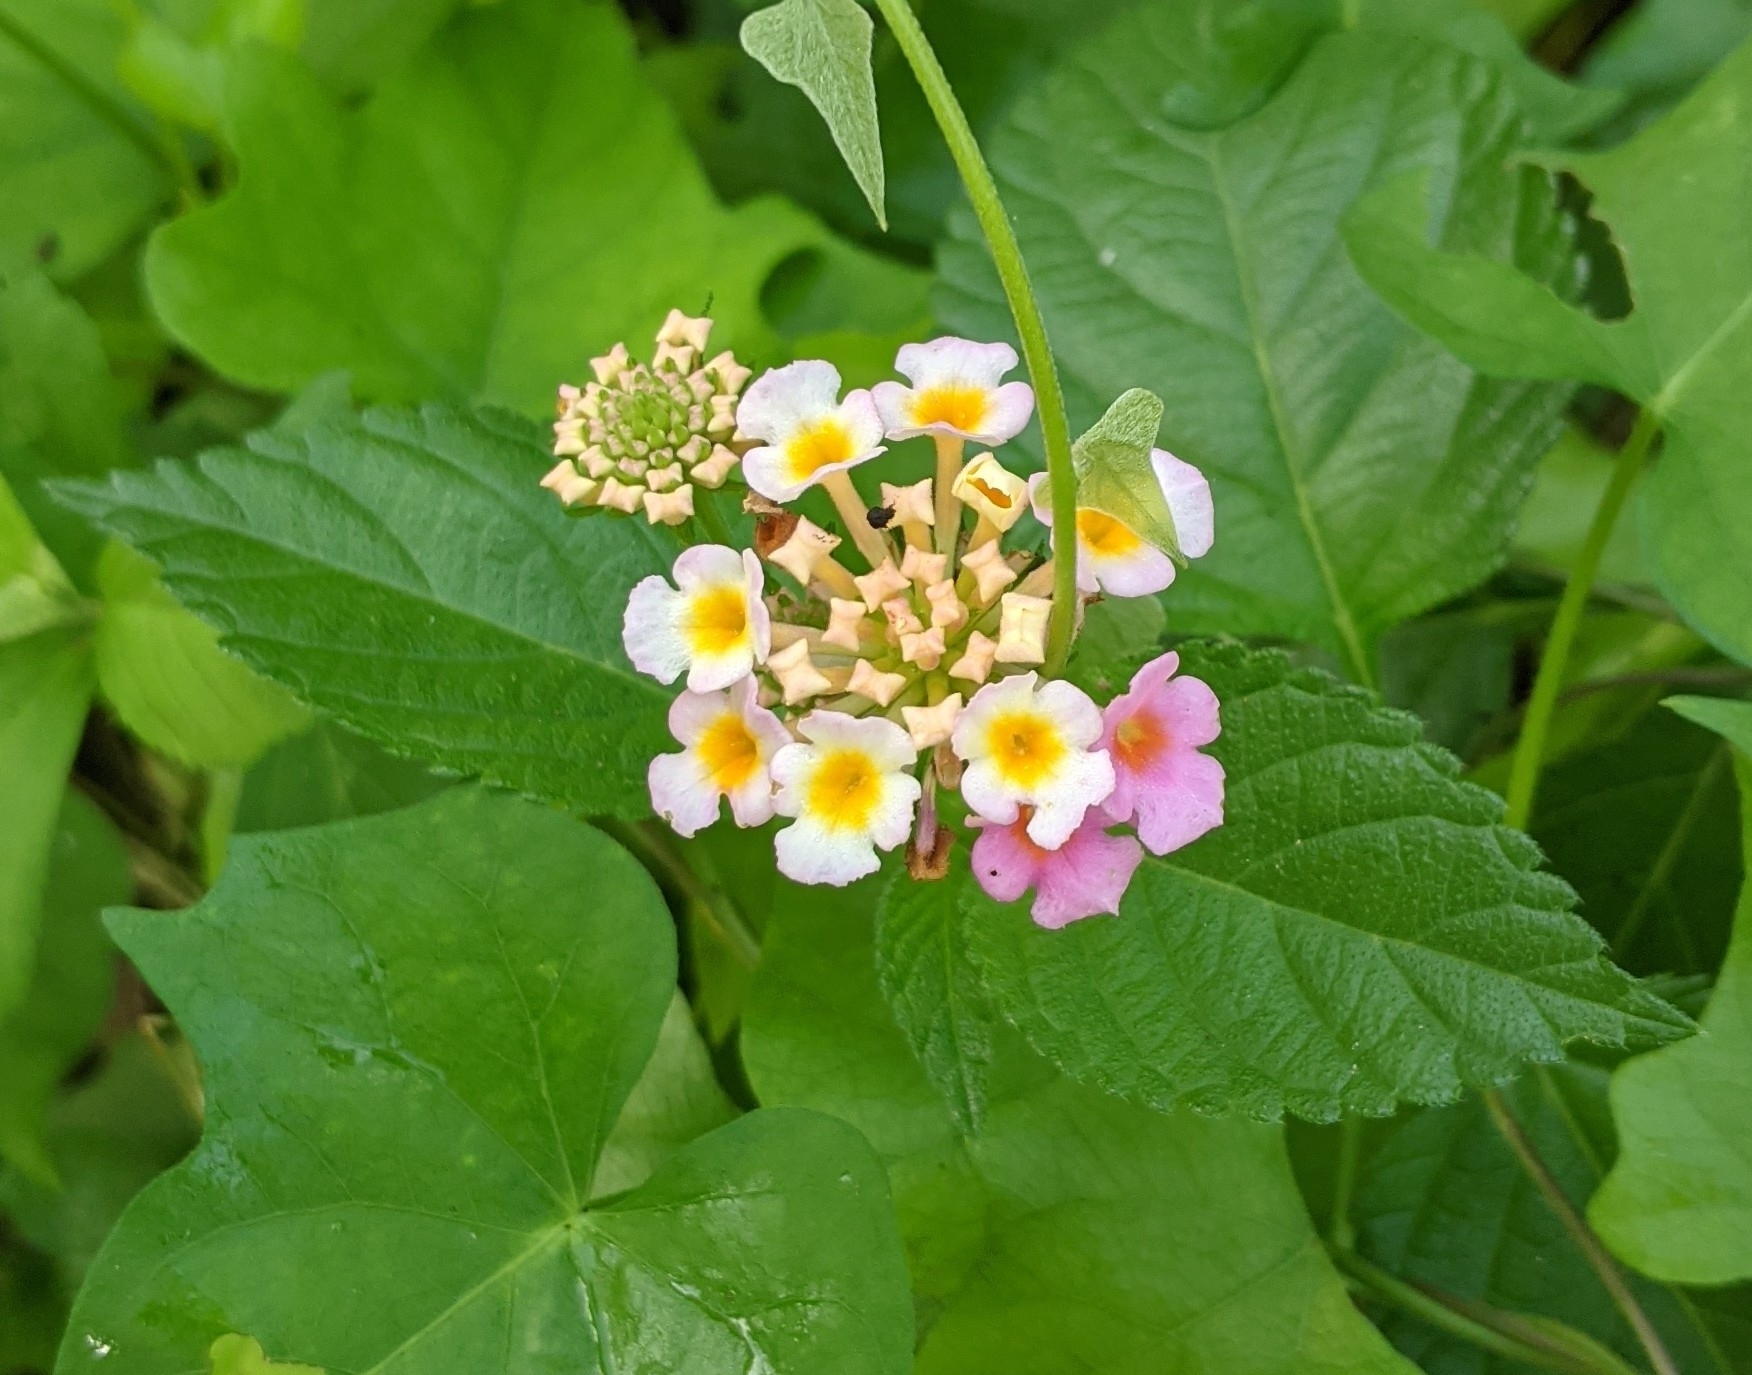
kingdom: Plantae
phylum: Tracheophyta
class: Magnoliopsida
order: Lamiales
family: Verbenaceae
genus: Lantana
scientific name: Lantana strigocamara
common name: Lantana
